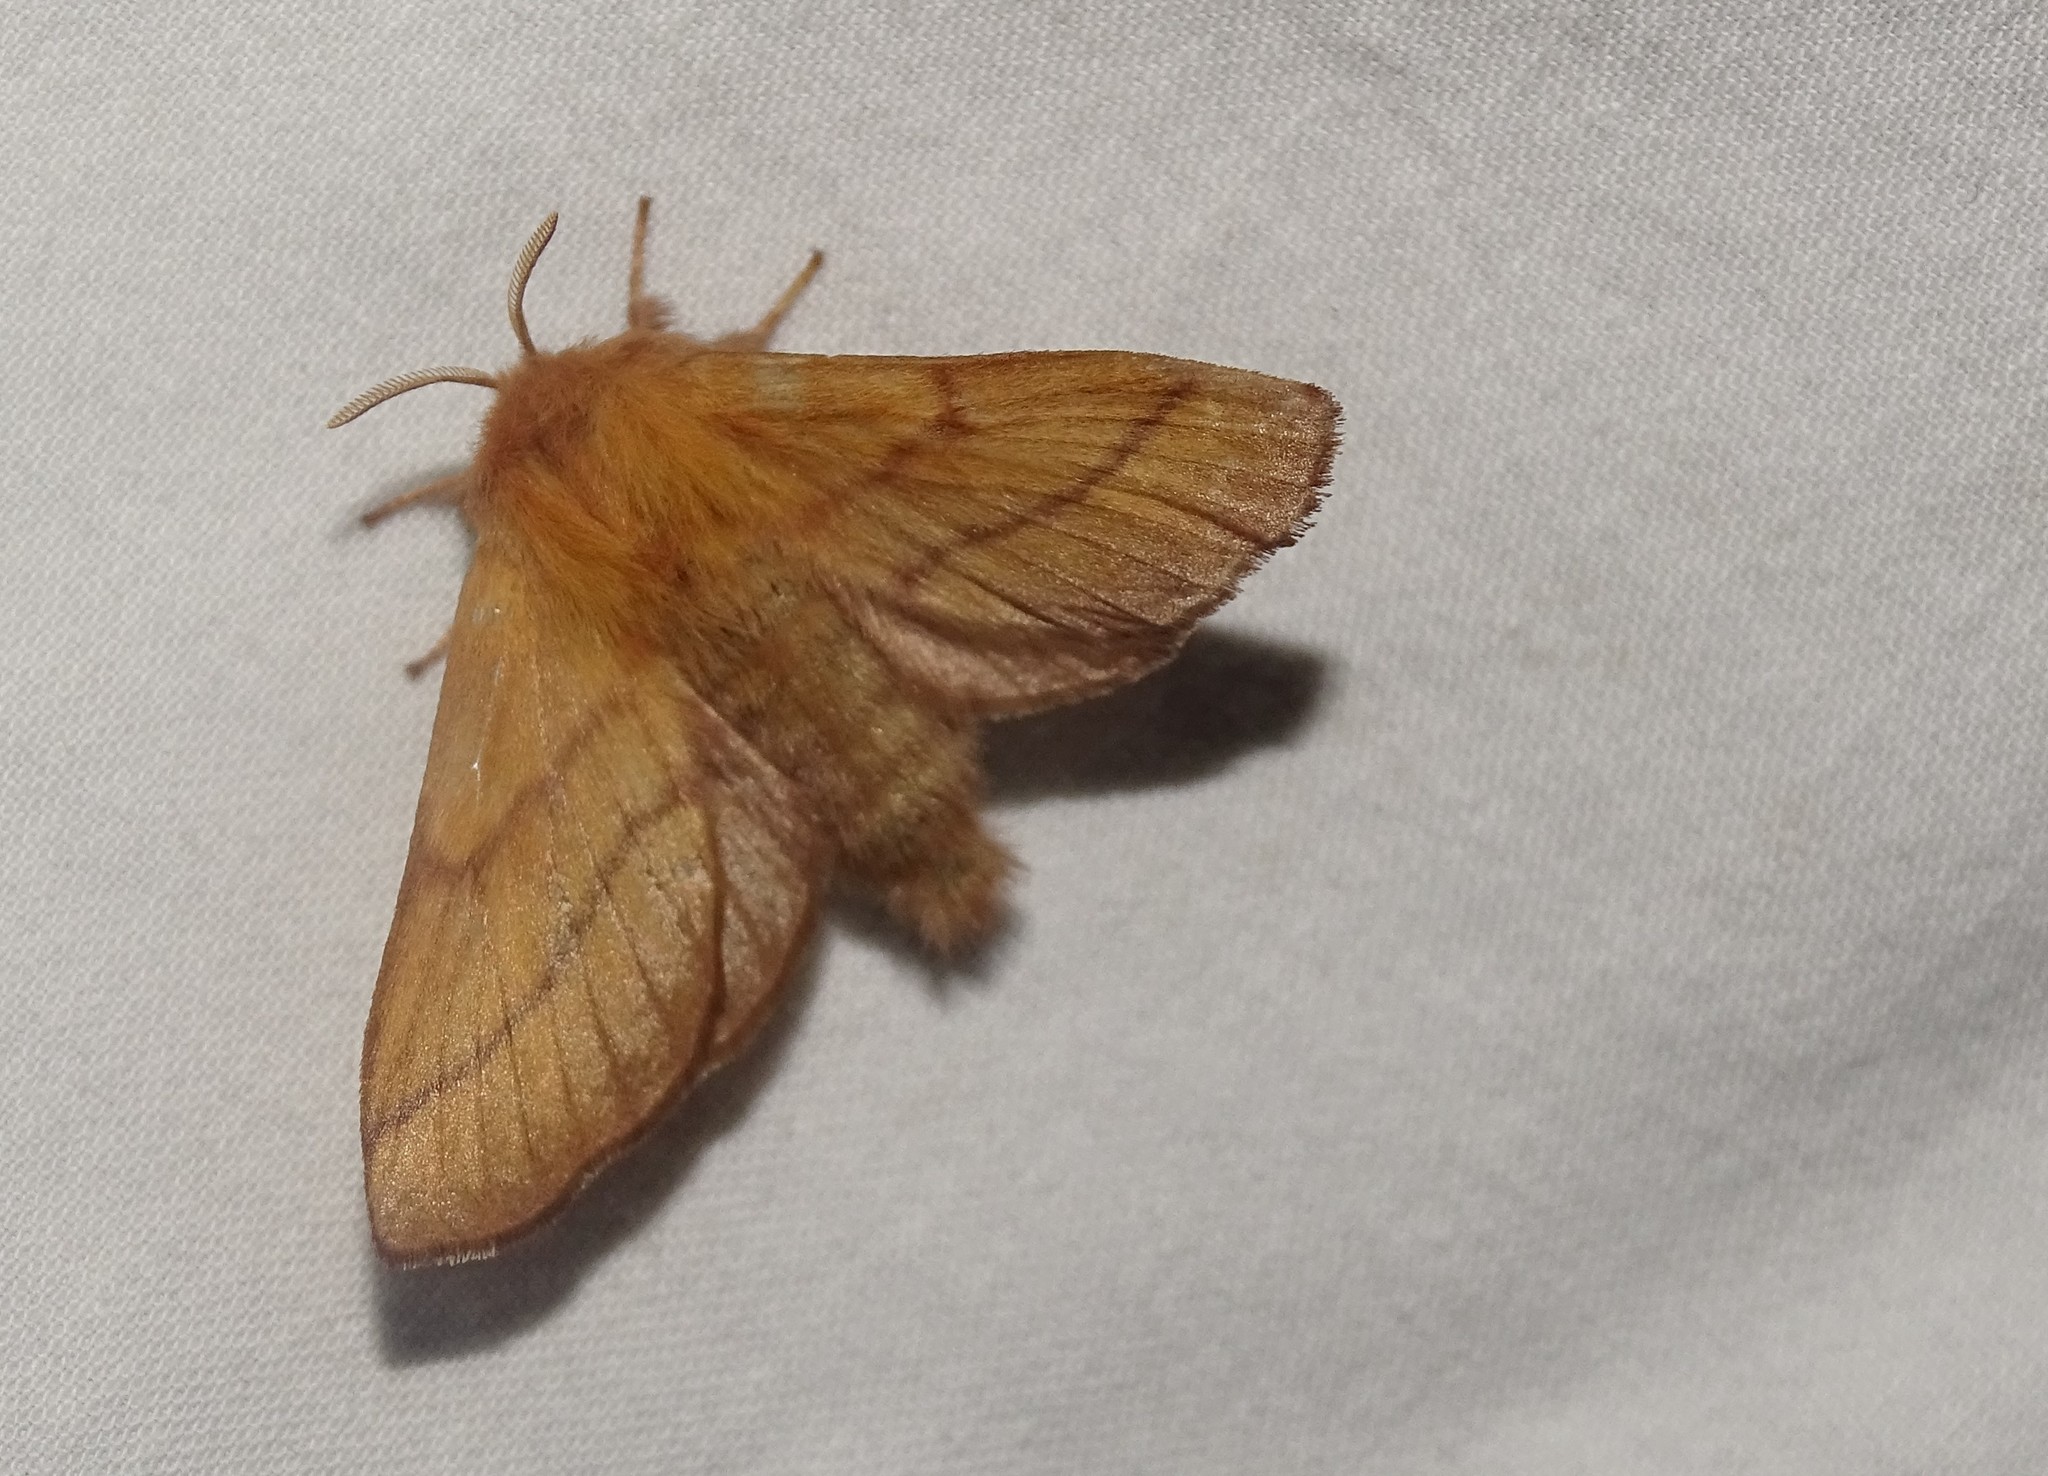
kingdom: Animalia
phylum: Arthropoda
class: Insecta
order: Lepidoptera
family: Lasiocampidae
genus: Malacosoma
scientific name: Malacosoma disstria
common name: Forest tent caterpillar
